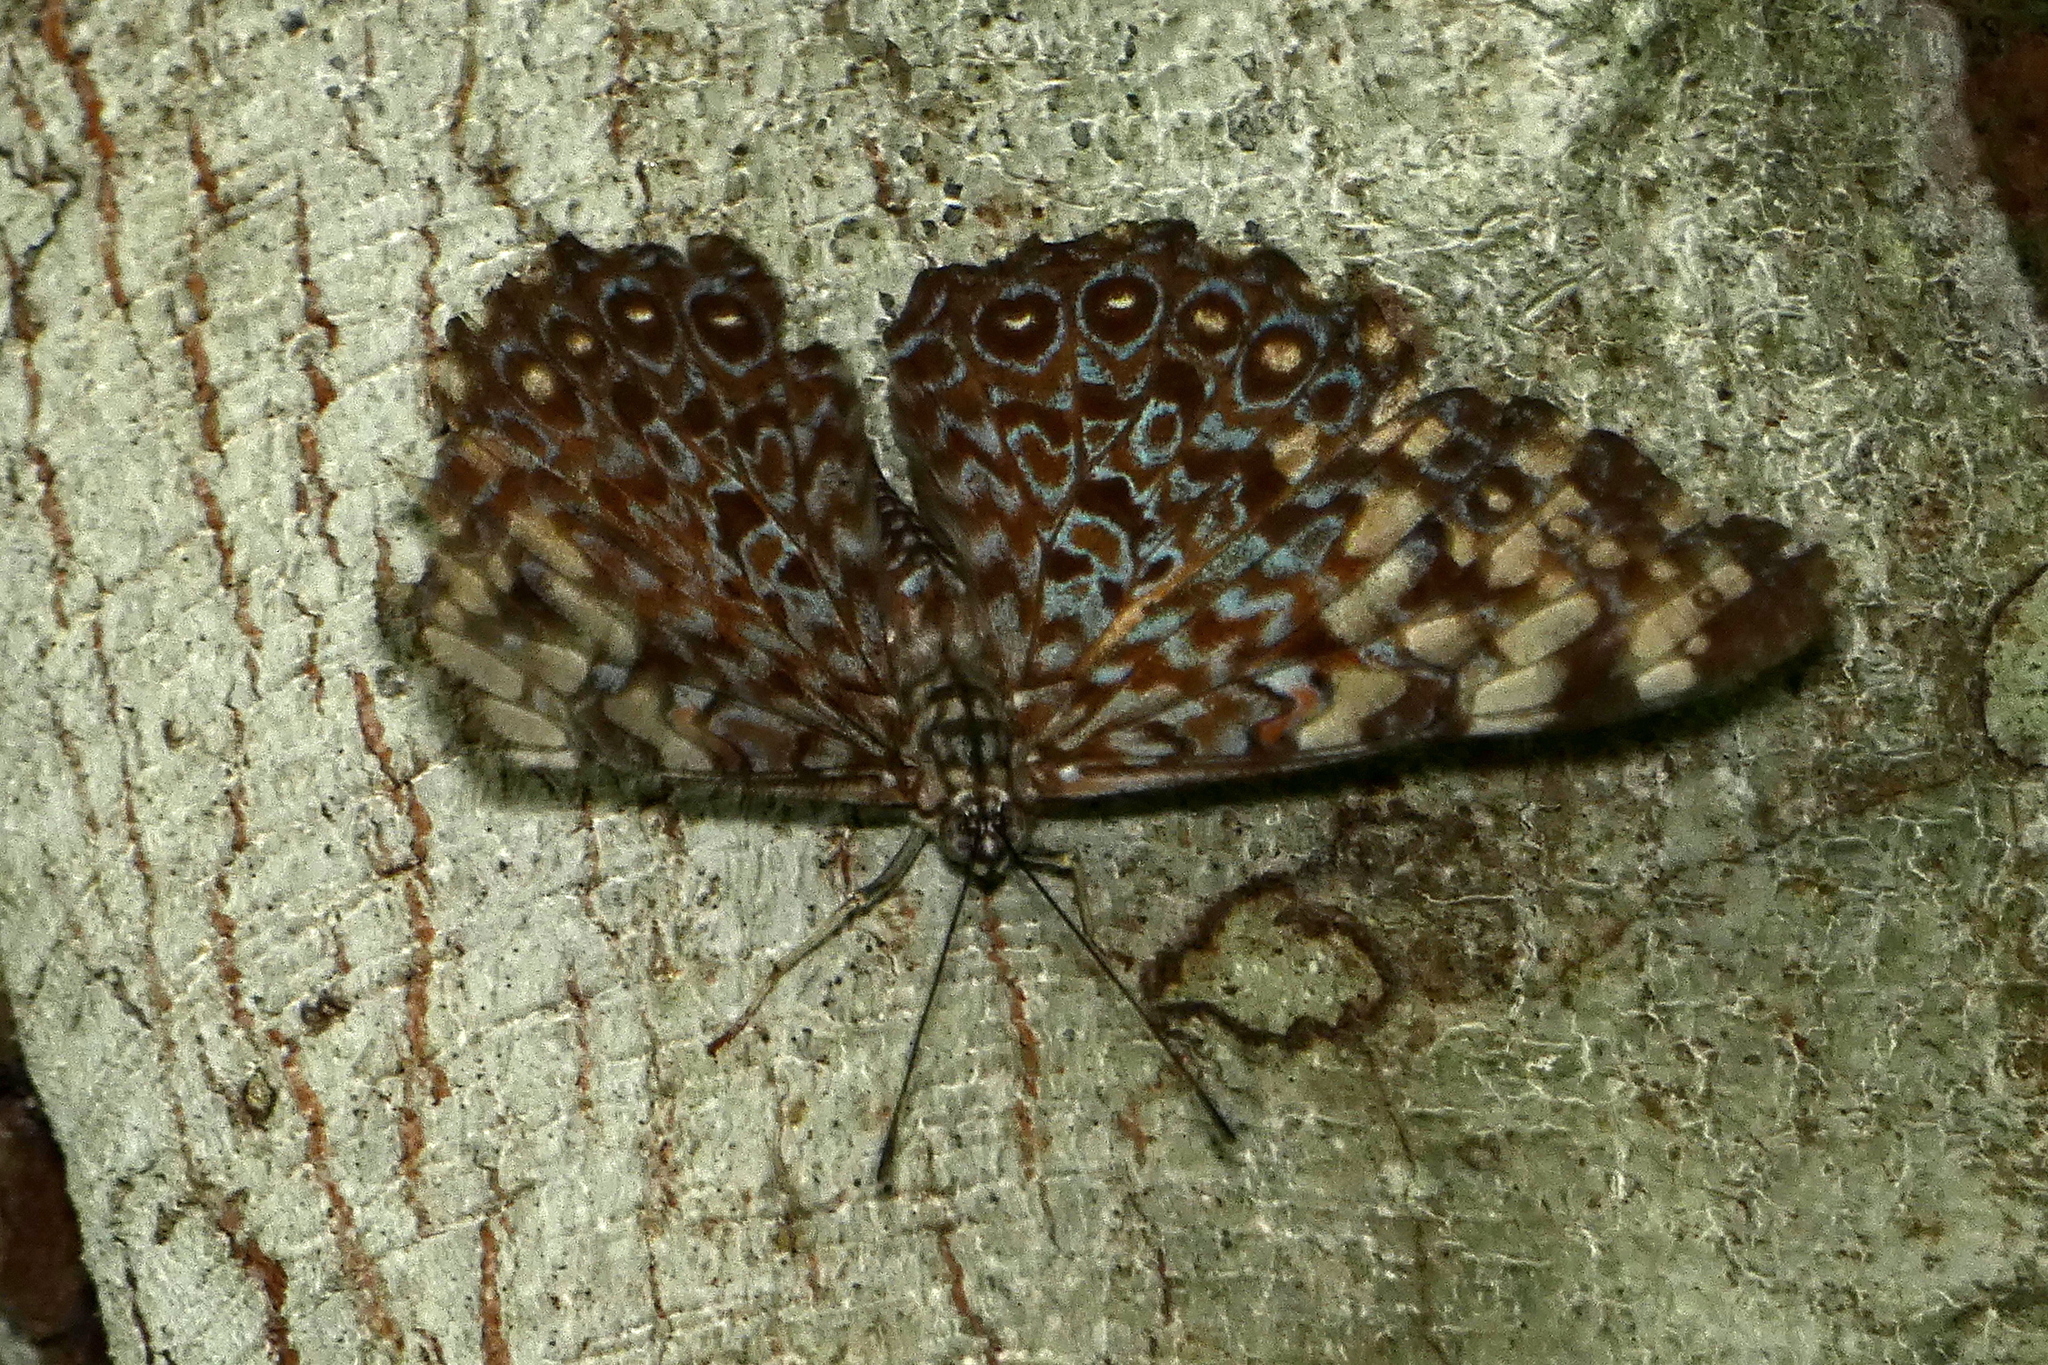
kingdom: Animalia
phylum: Arthropoda
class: Insecta
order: Lepidoptera
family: Nymphalidae
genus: Hamadryas
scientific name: Hamadryas feronia
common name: Variable cracker
